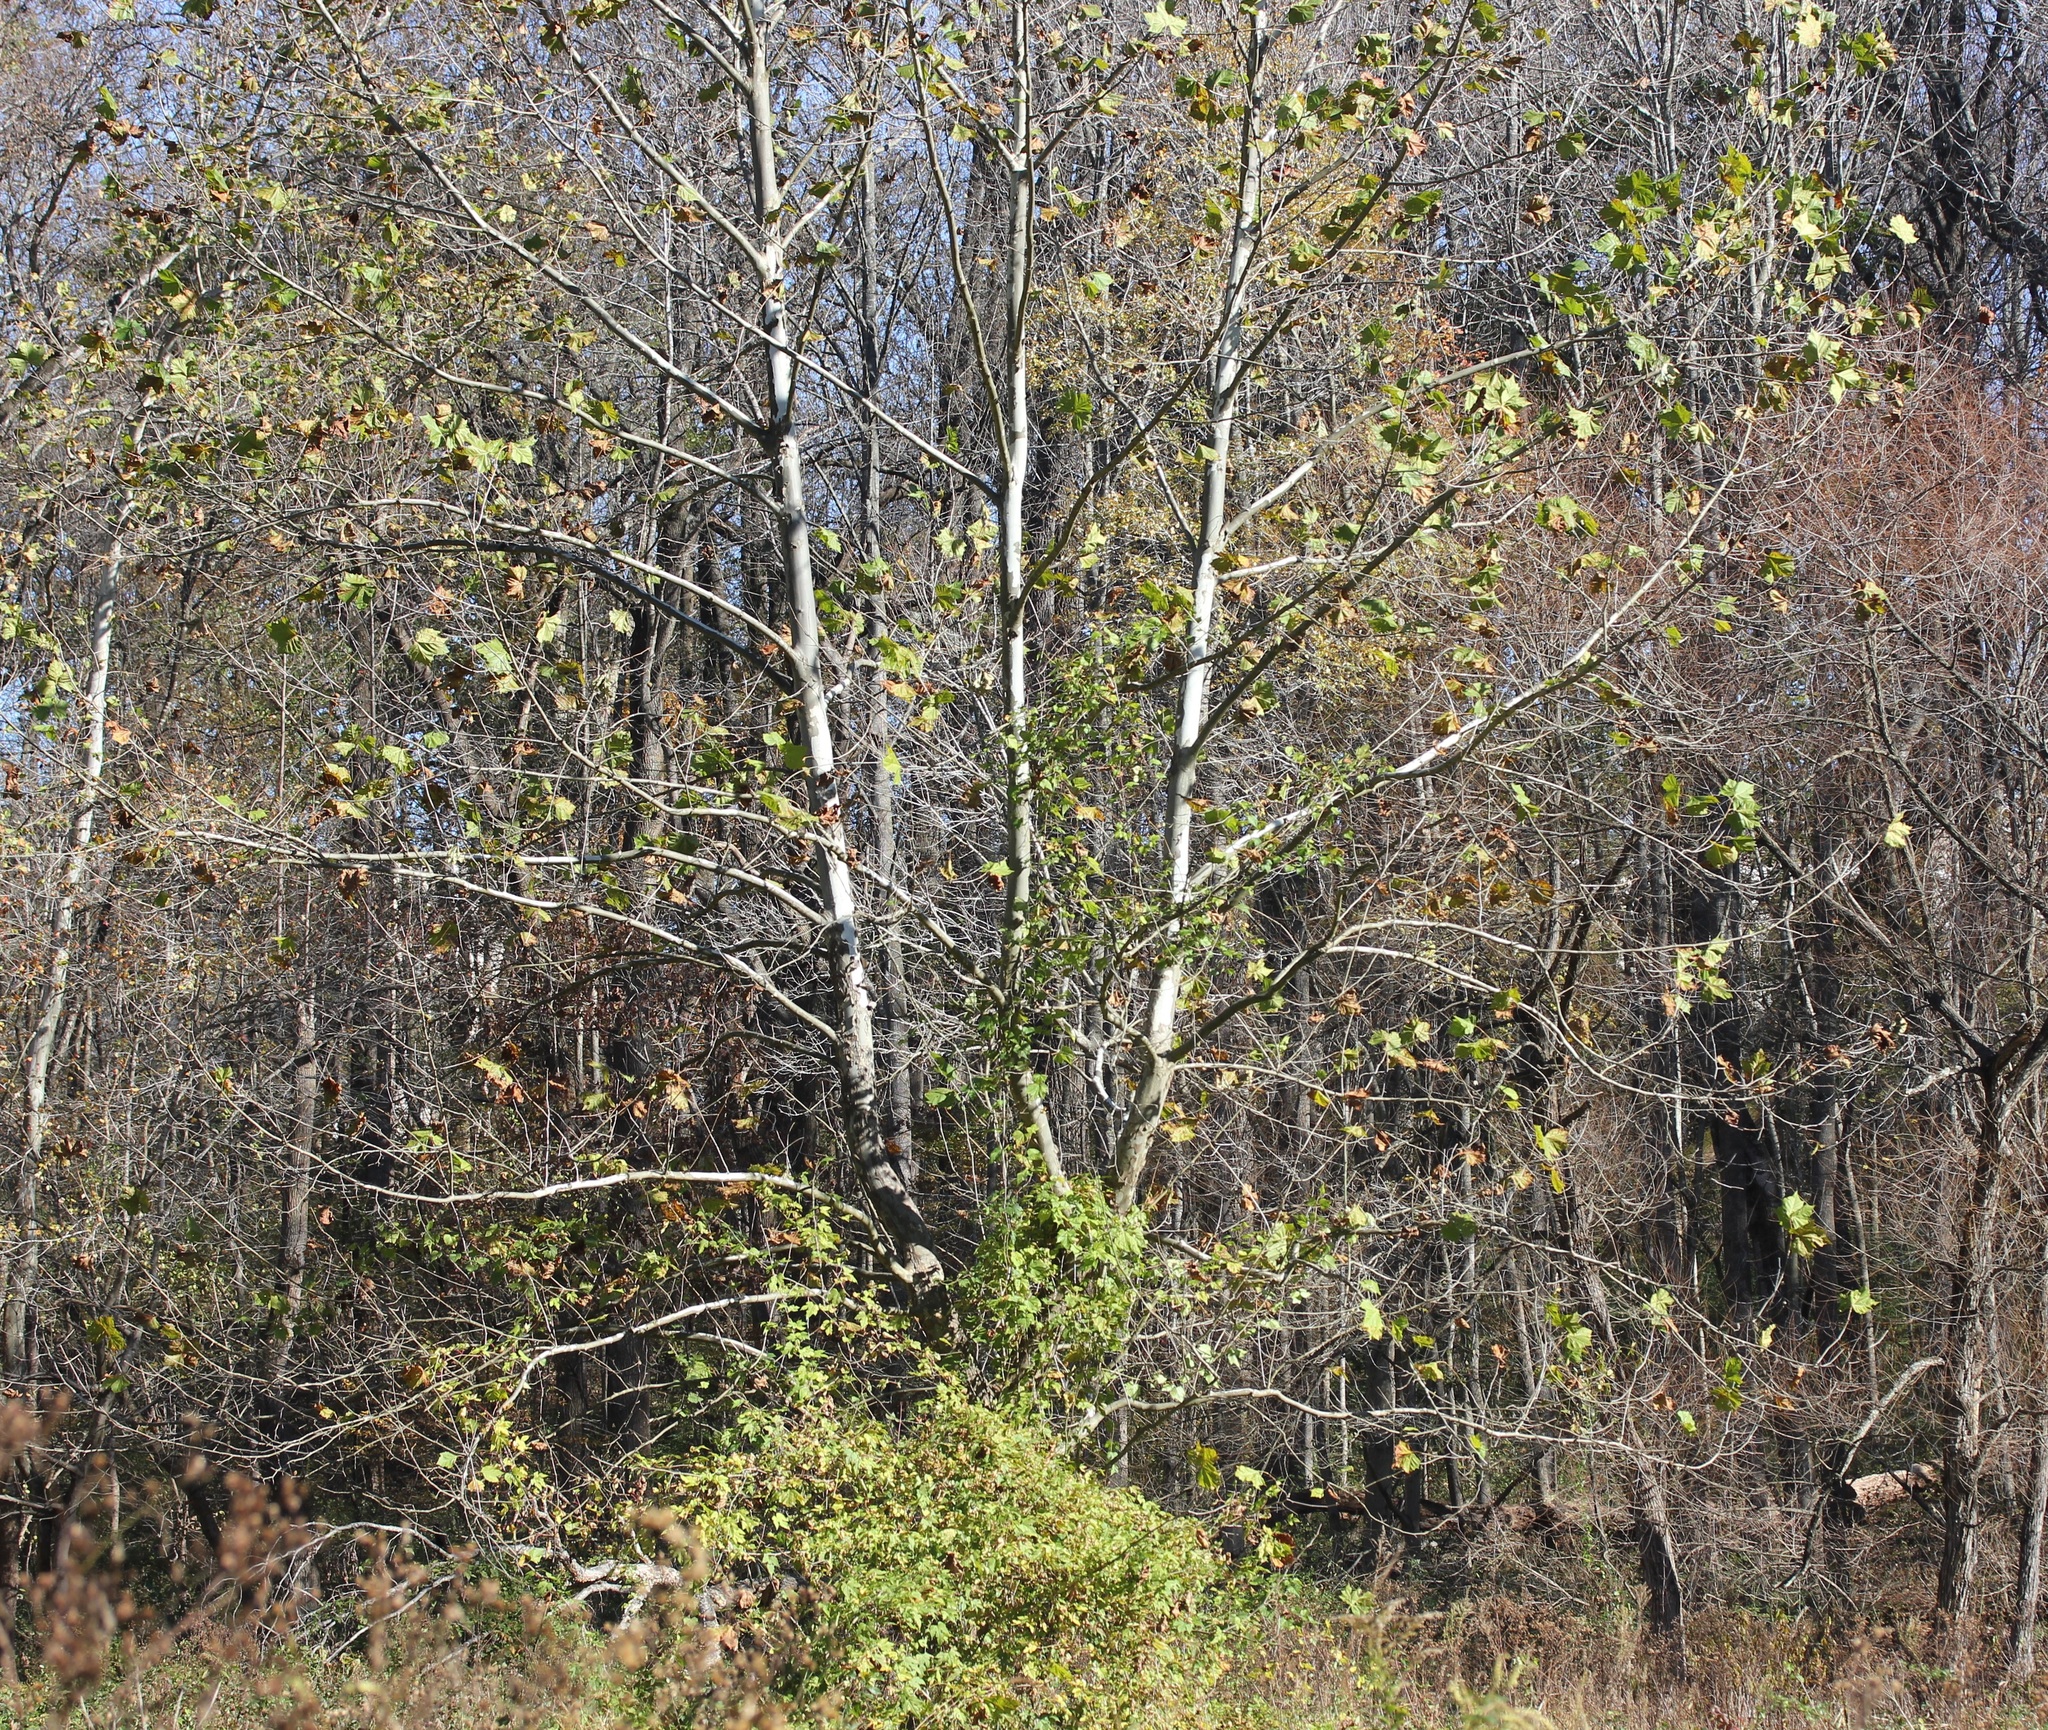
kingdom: Plantae
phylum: Tracheophyta
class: Magnoliopsida
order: Proteales
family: Platanaceae
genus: Platanus
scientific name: Platanus occidentalis
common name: American sycamore
